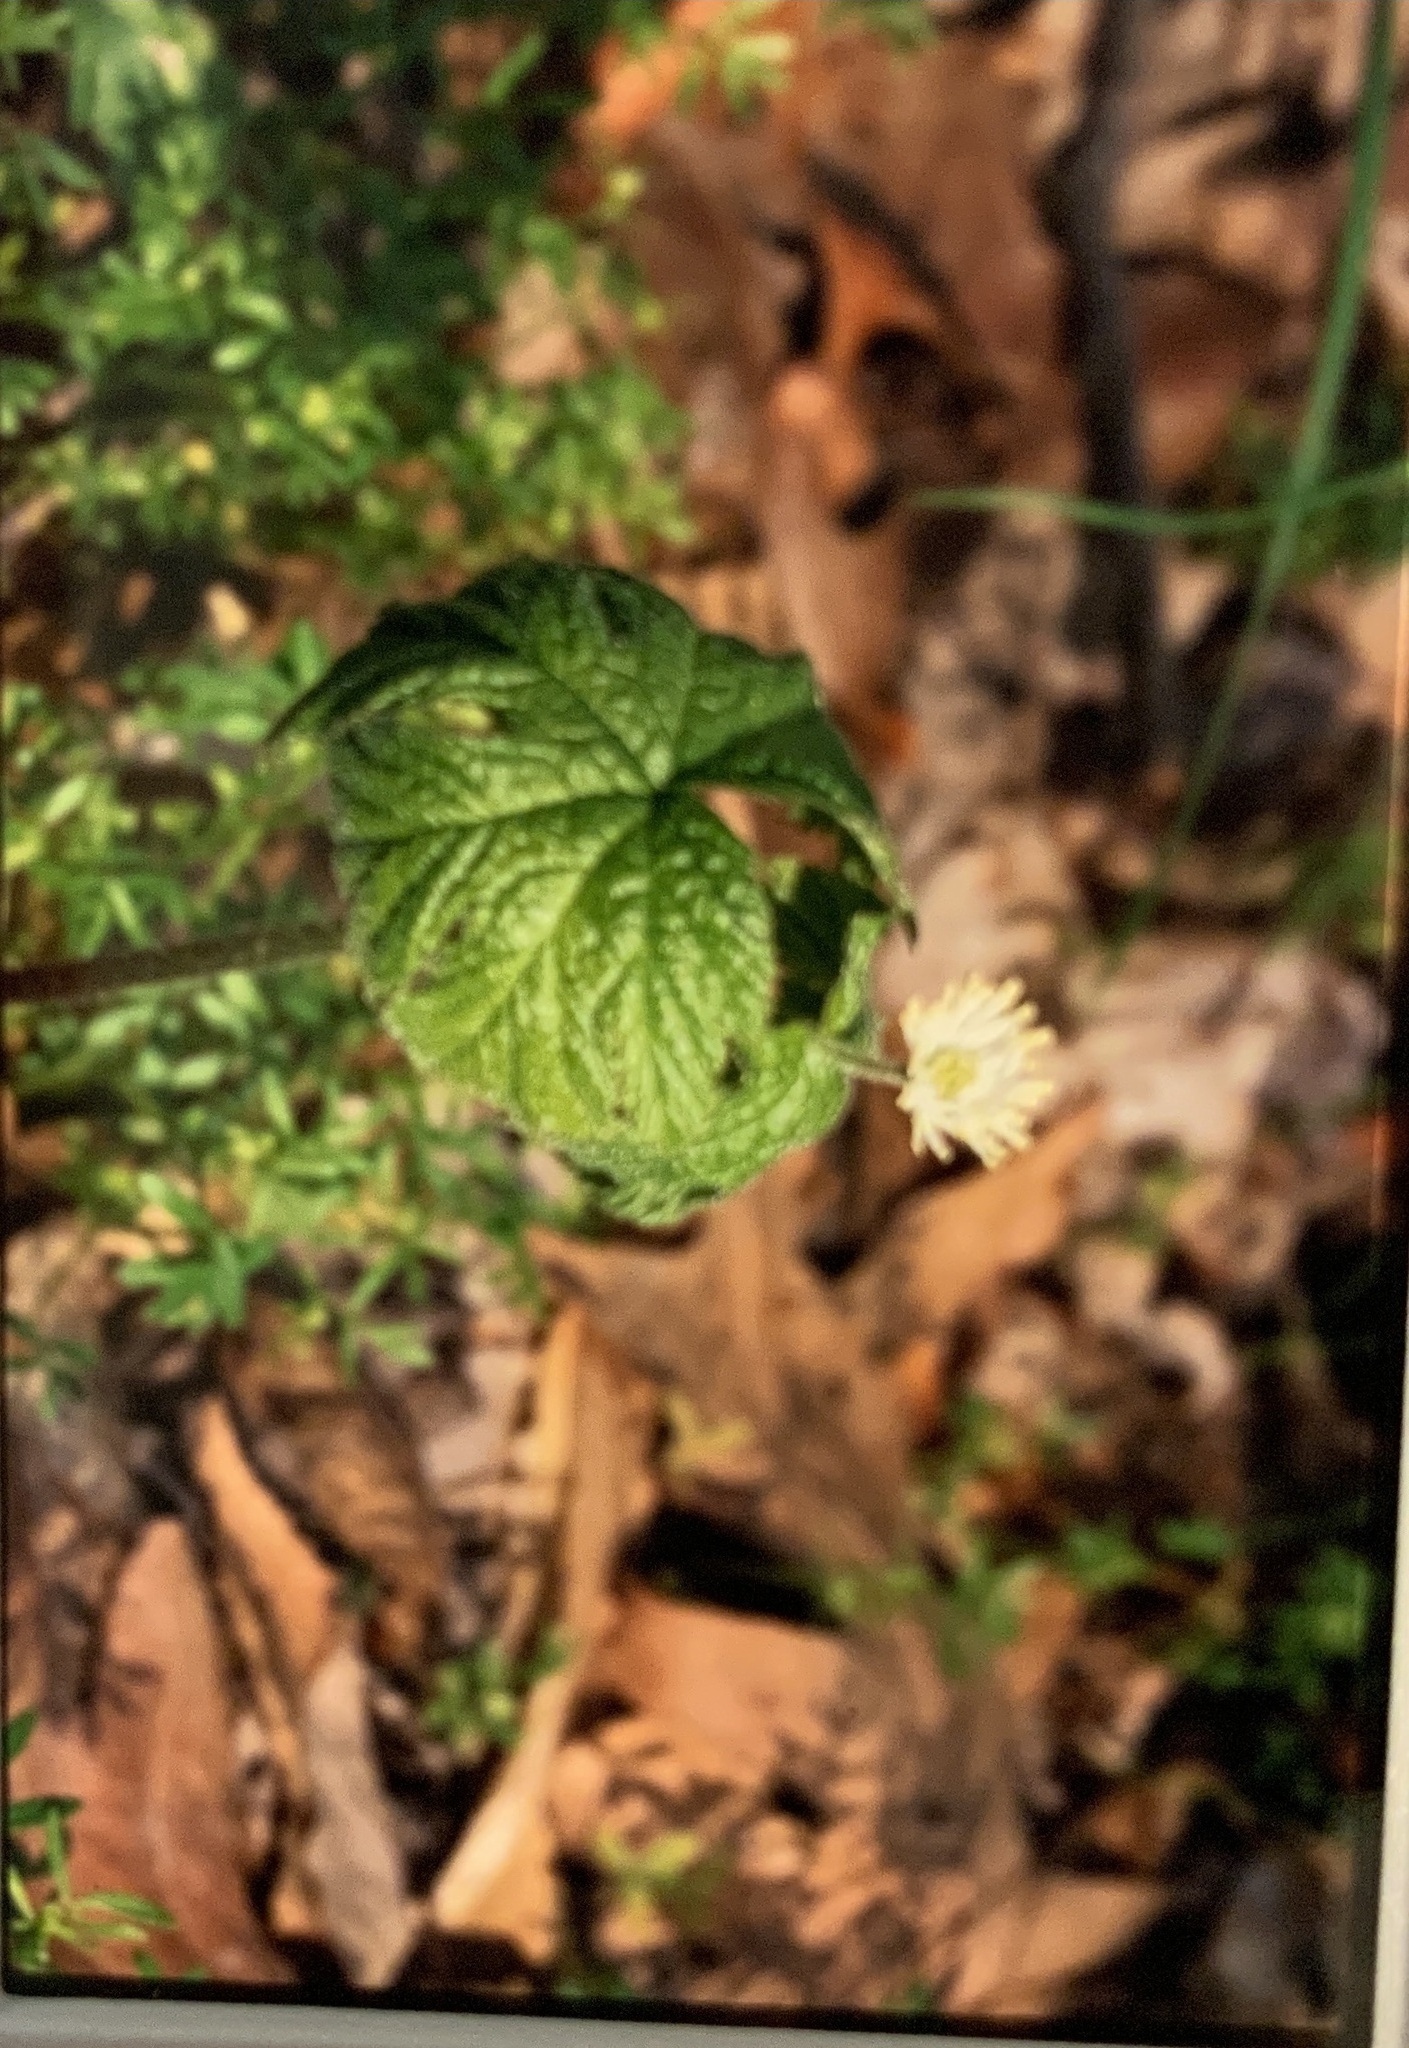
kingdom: Plantae
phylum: Tracheophyta
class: Magnoliopsida
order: Ranunculales
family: Ranunculaceae
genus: Hydrastis
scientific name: Hydrastis canadensis
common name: Goldenseal
